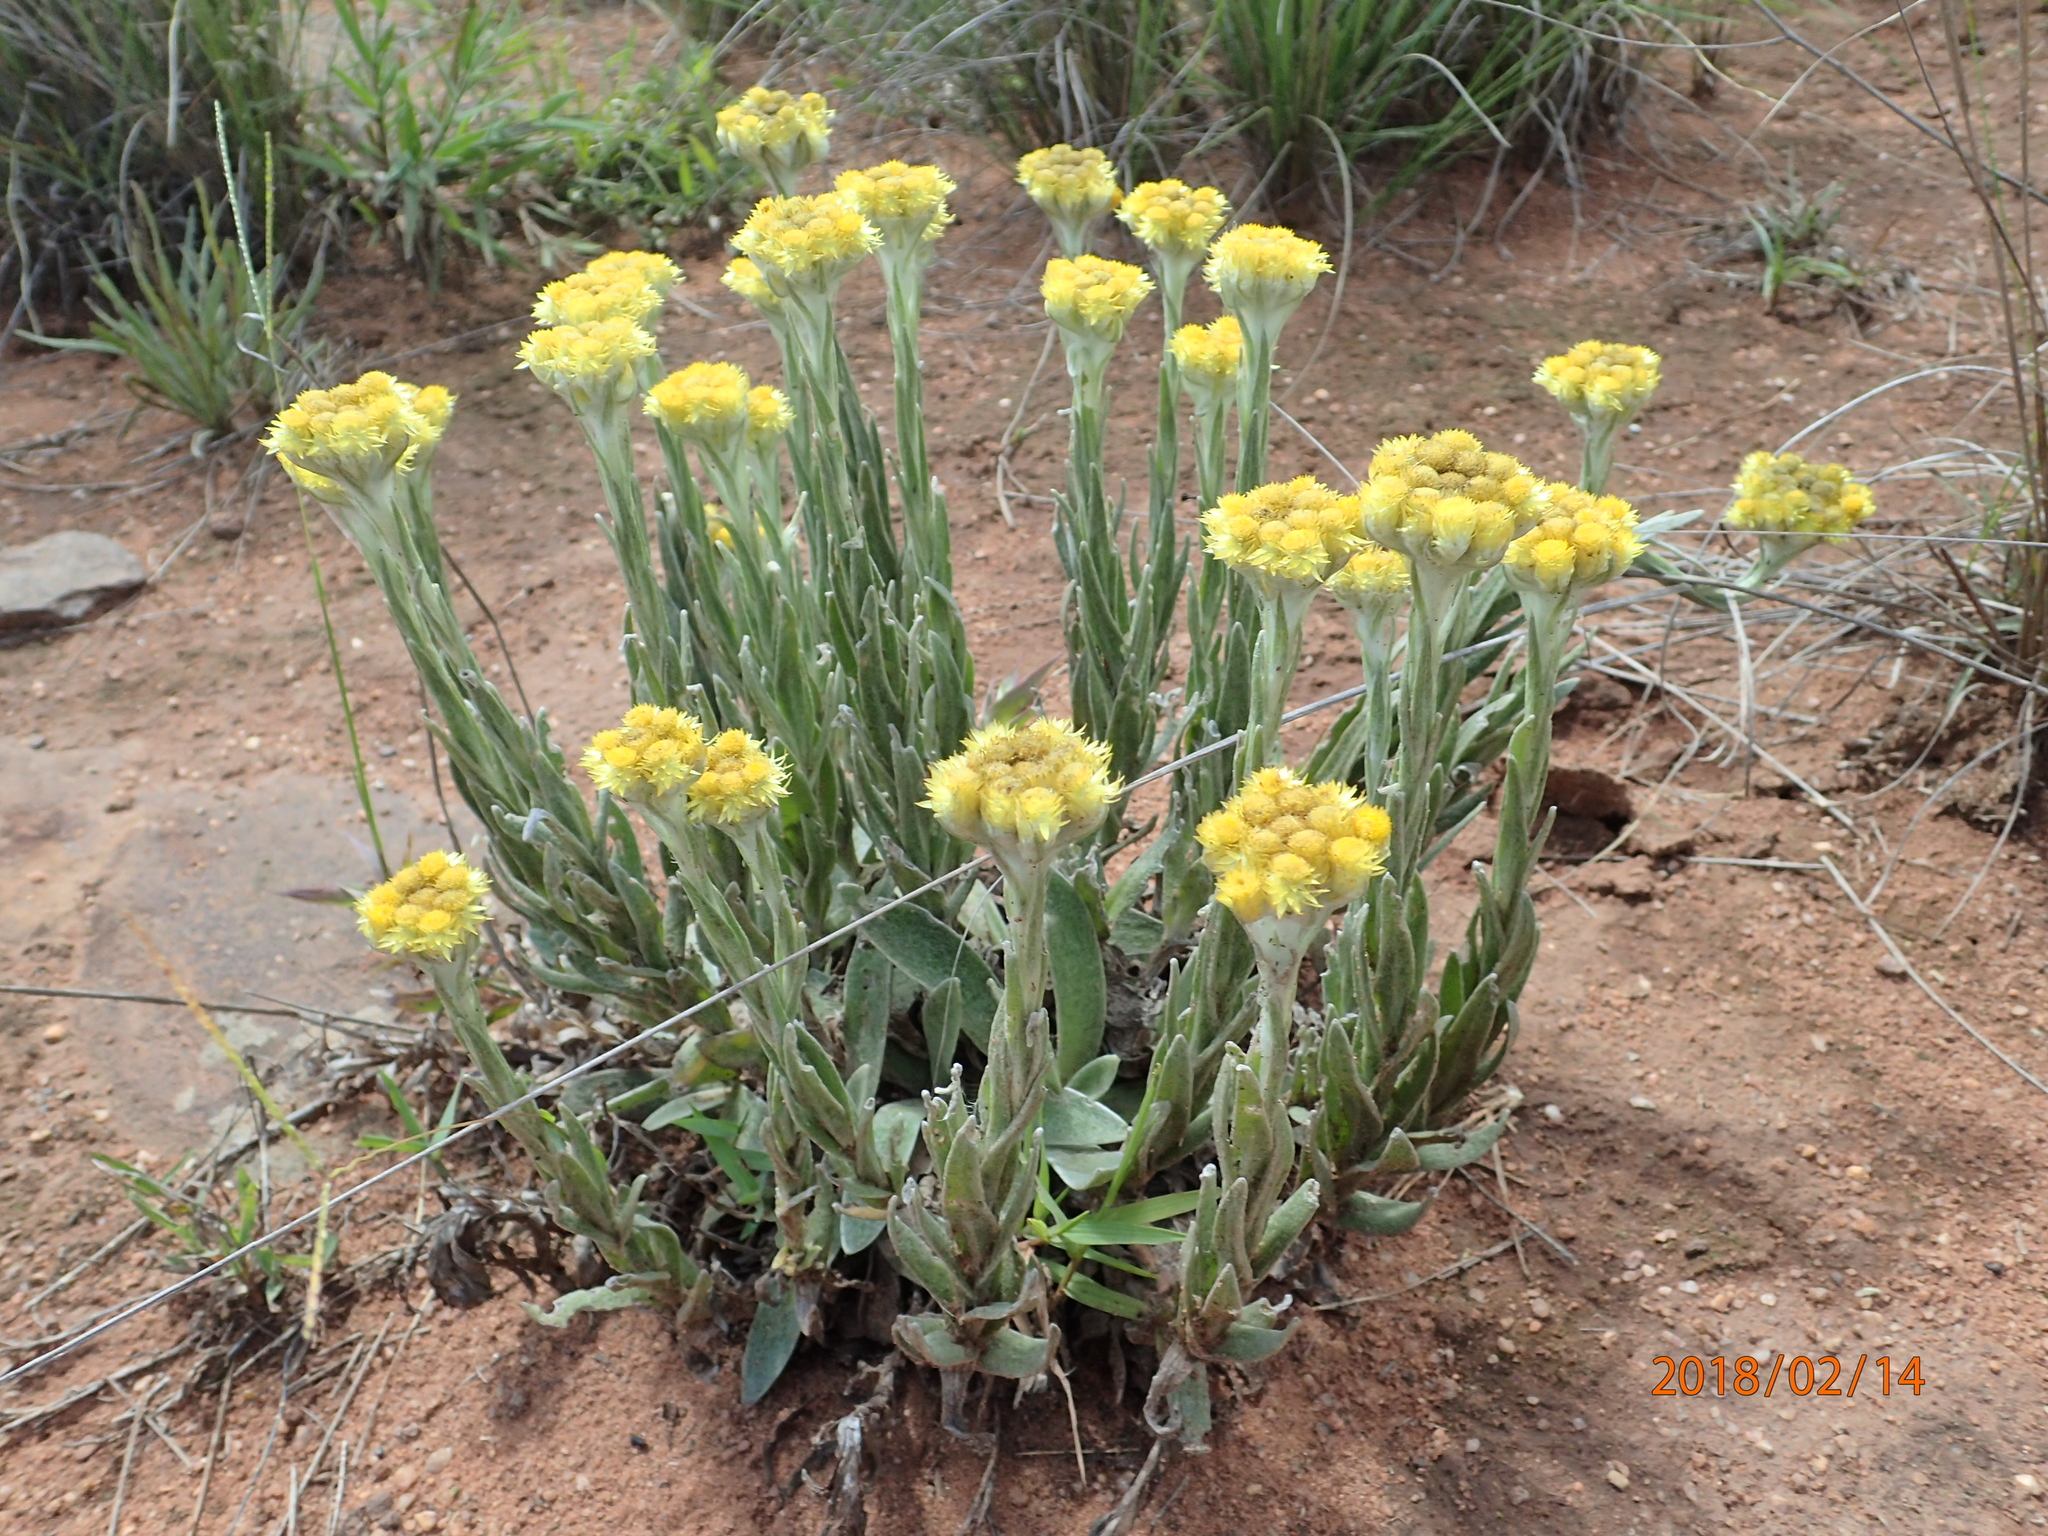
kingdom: Plantae
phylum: Tracheophyta
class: Magnoliopsida
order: Asterales
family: Asteraceae
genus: Helichrysum
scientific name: Helichrysum appendiculatum
